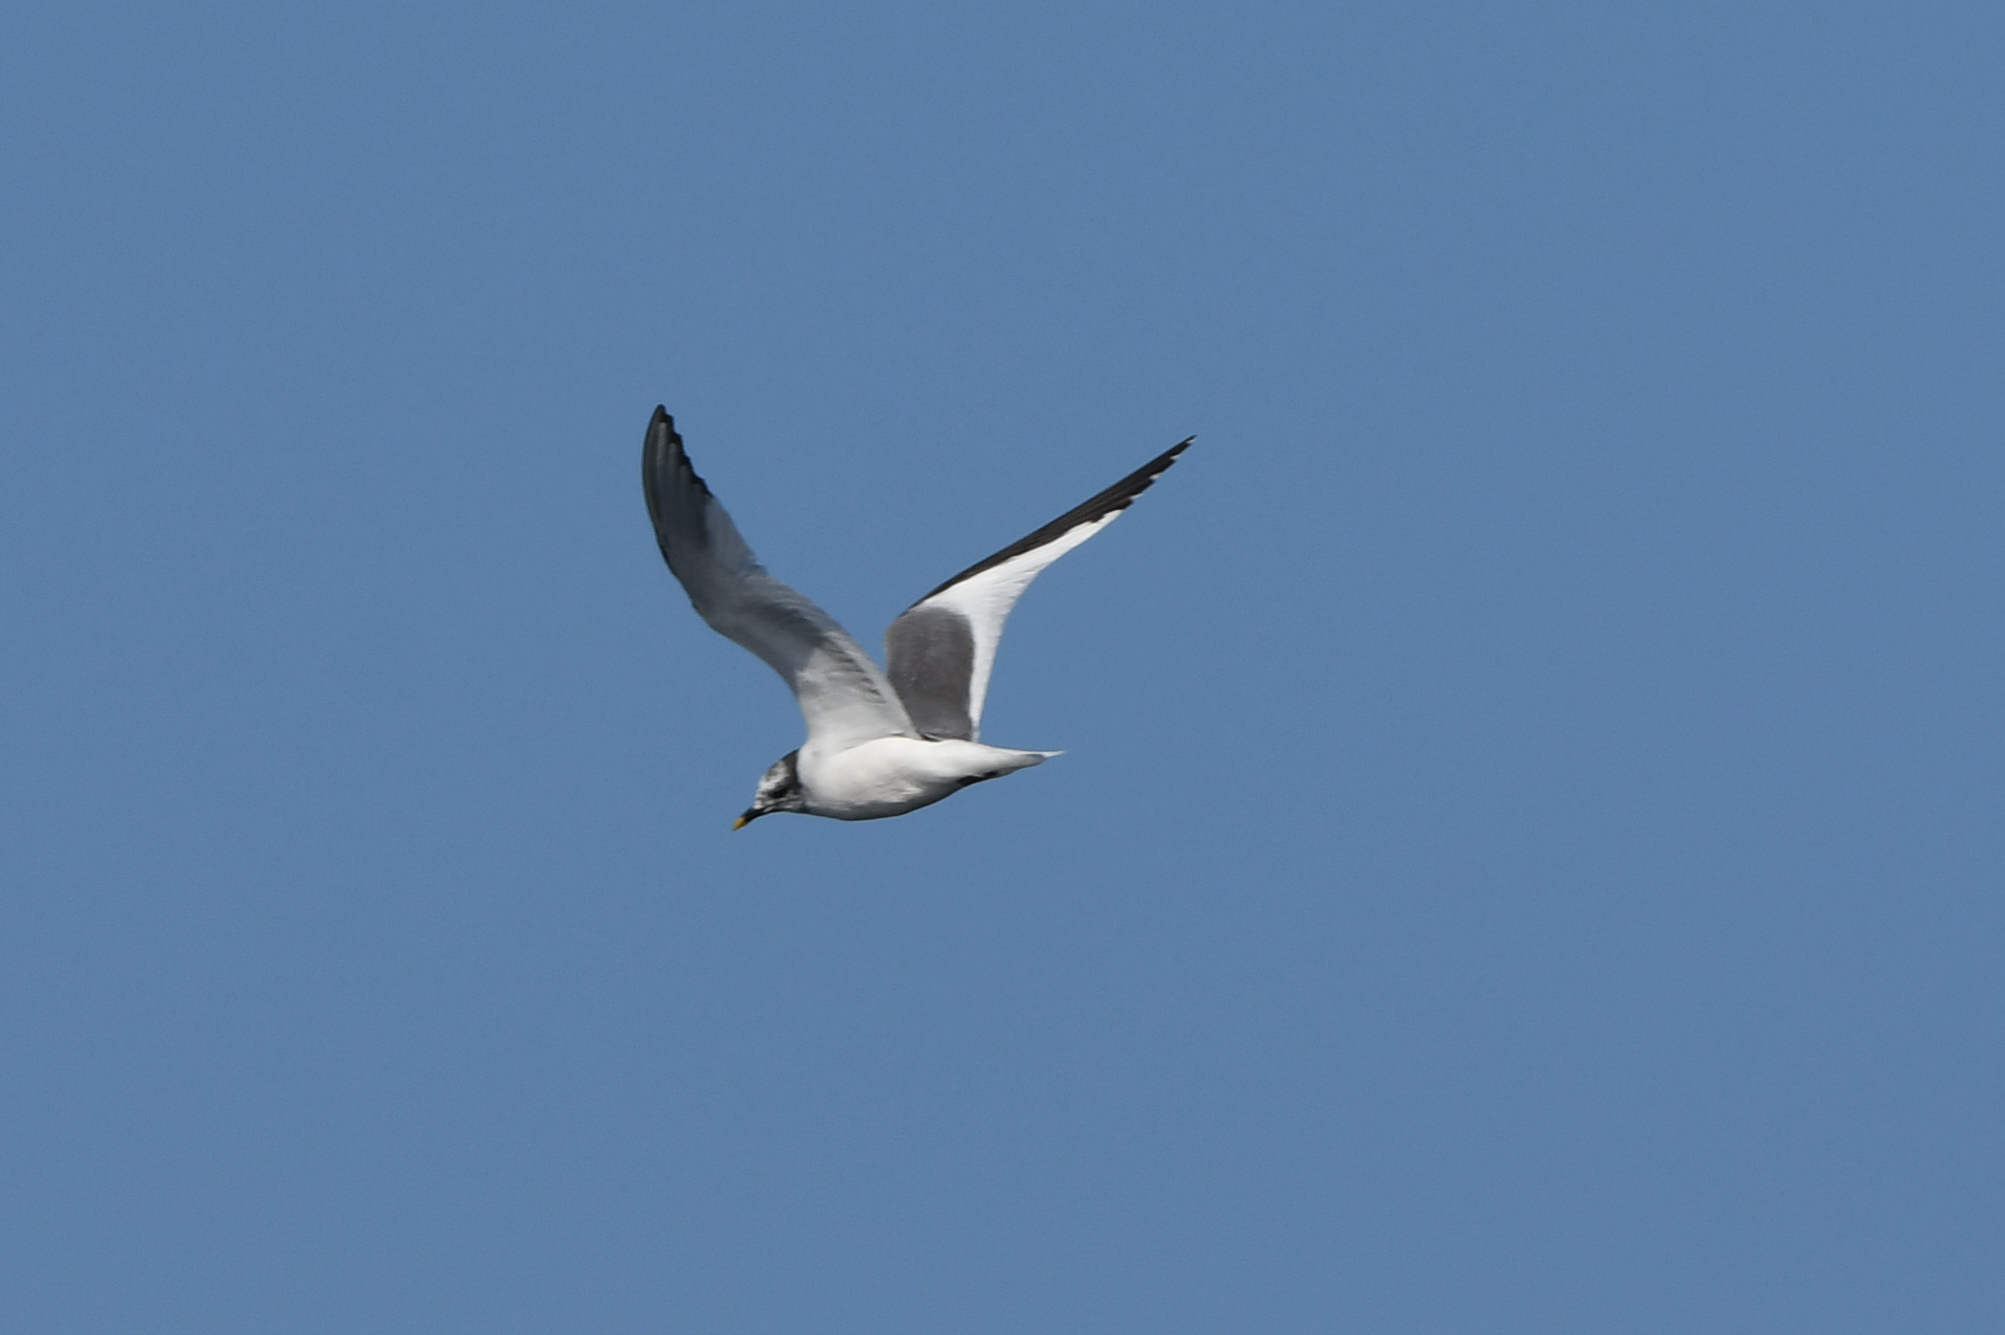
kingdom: Animalia
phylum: Chordata
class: Aves
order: Charadriiformes
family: Laridae
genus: Xema
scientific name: Xema sabini
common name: Sabine's gull
